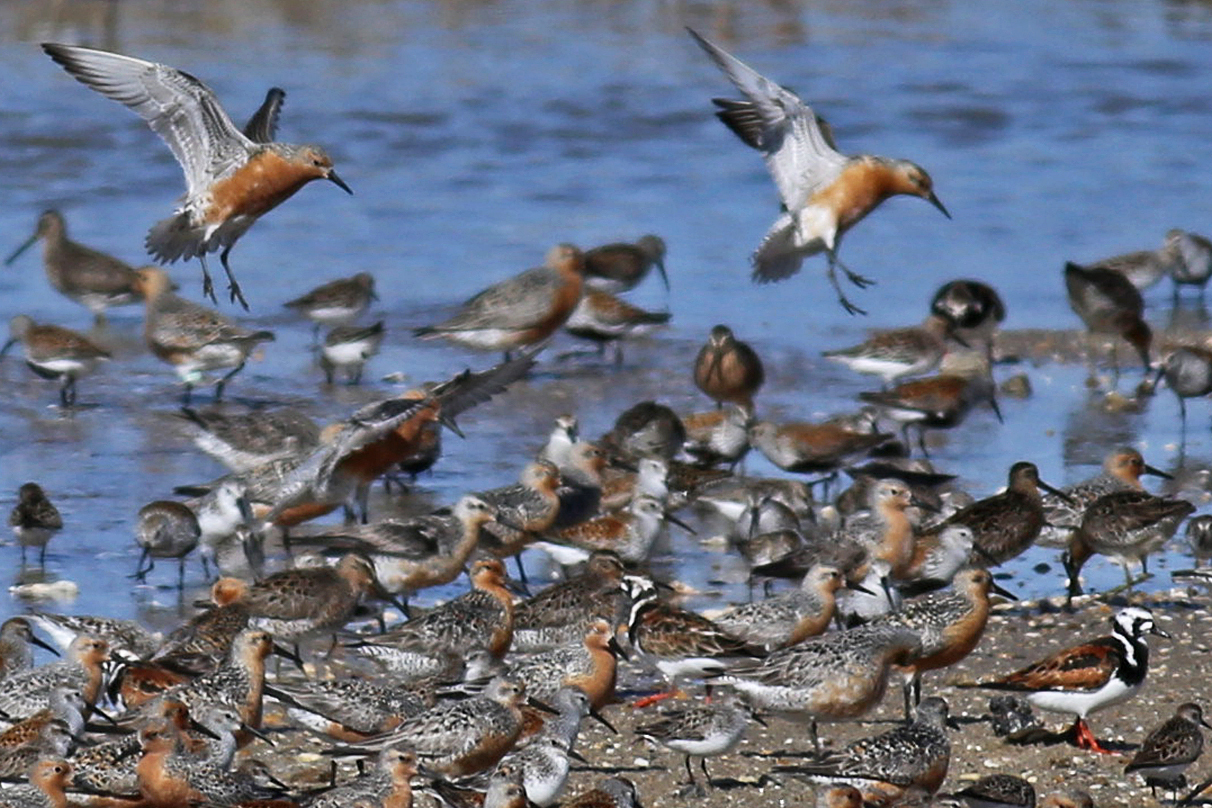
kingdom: Animalia
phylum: Chordata
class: Aves
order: Charadriiformes
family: Scolopacidae
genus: Calidris
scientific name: Calidris canutus
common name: Red knot
